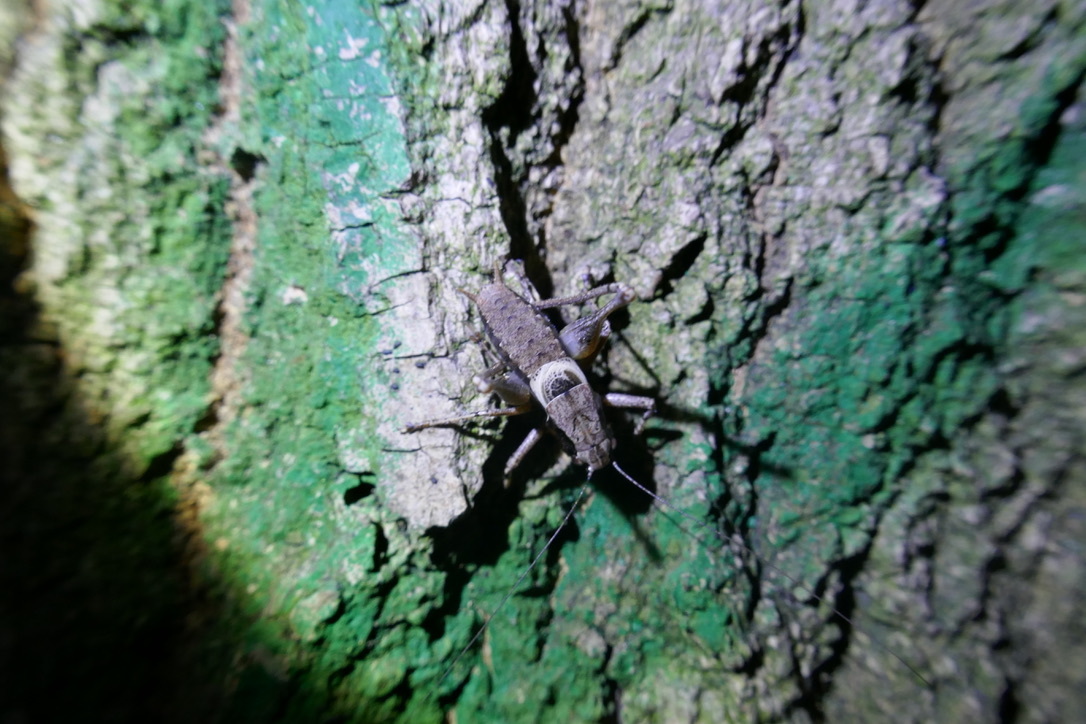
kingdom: Animalia
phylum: Arthropoda
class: Insecta
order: Orthoptera
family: Tettigoniidae
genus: Pholidoptera
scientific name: Pholidoptera griseoaptera
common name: Dark bush-cricket
